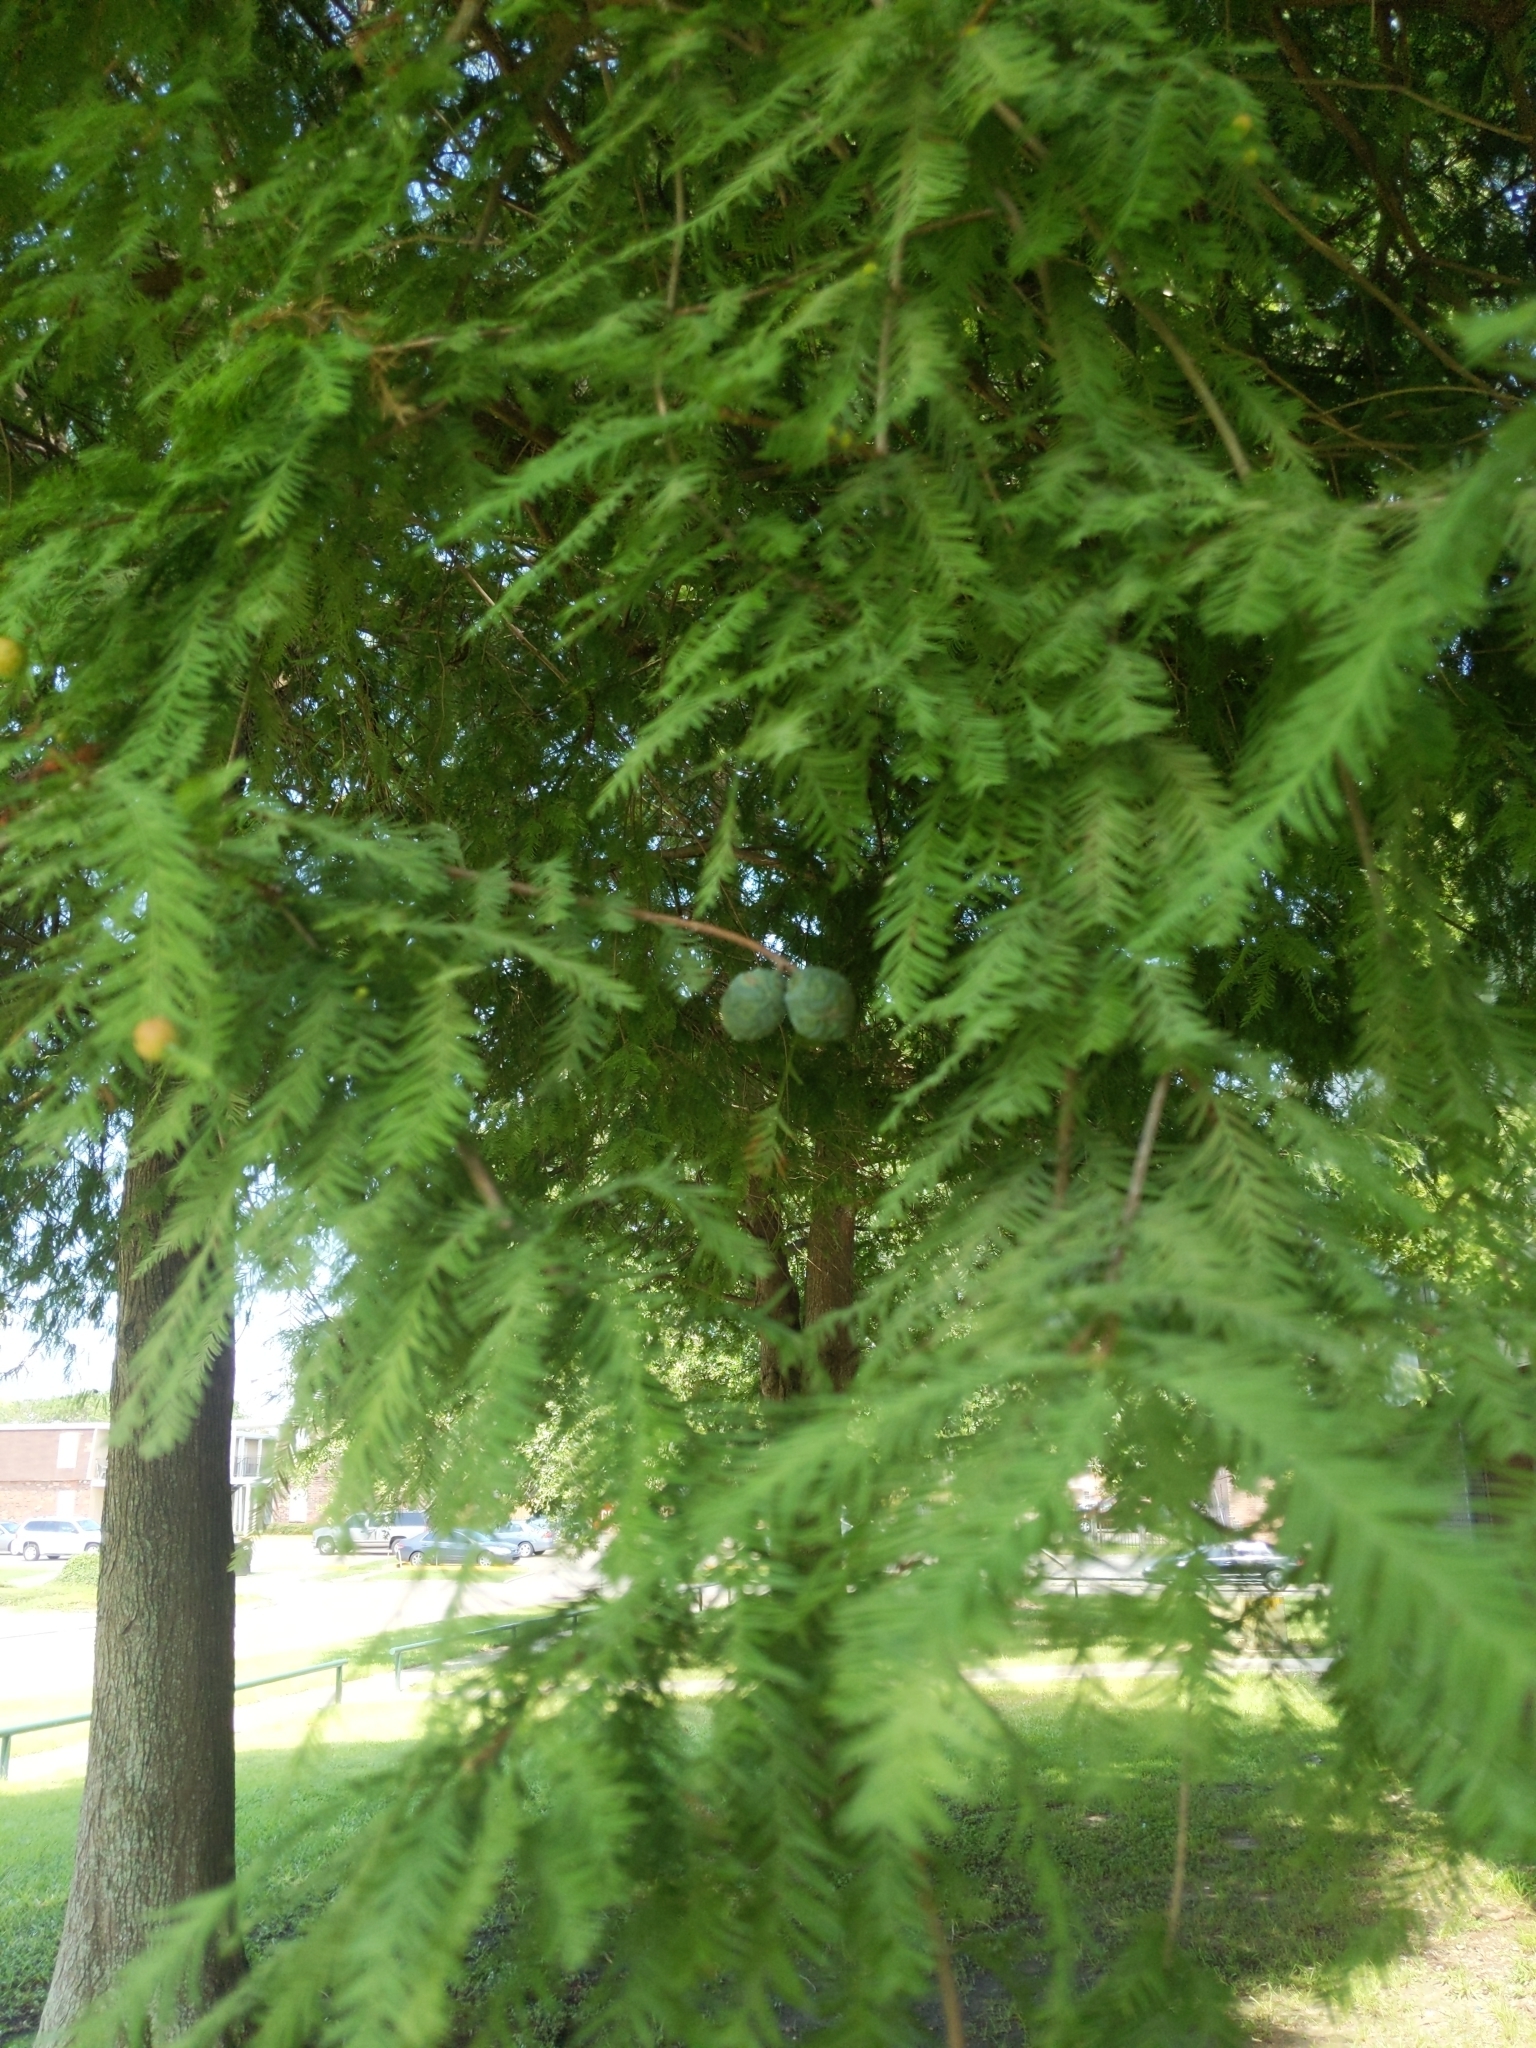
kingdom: Plantae
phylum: Tracheophyta
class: Pinopsida
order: Pinales
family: Cupressaceae
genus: Taxodium
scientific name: Taxodium distichum
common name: Bald cypress
